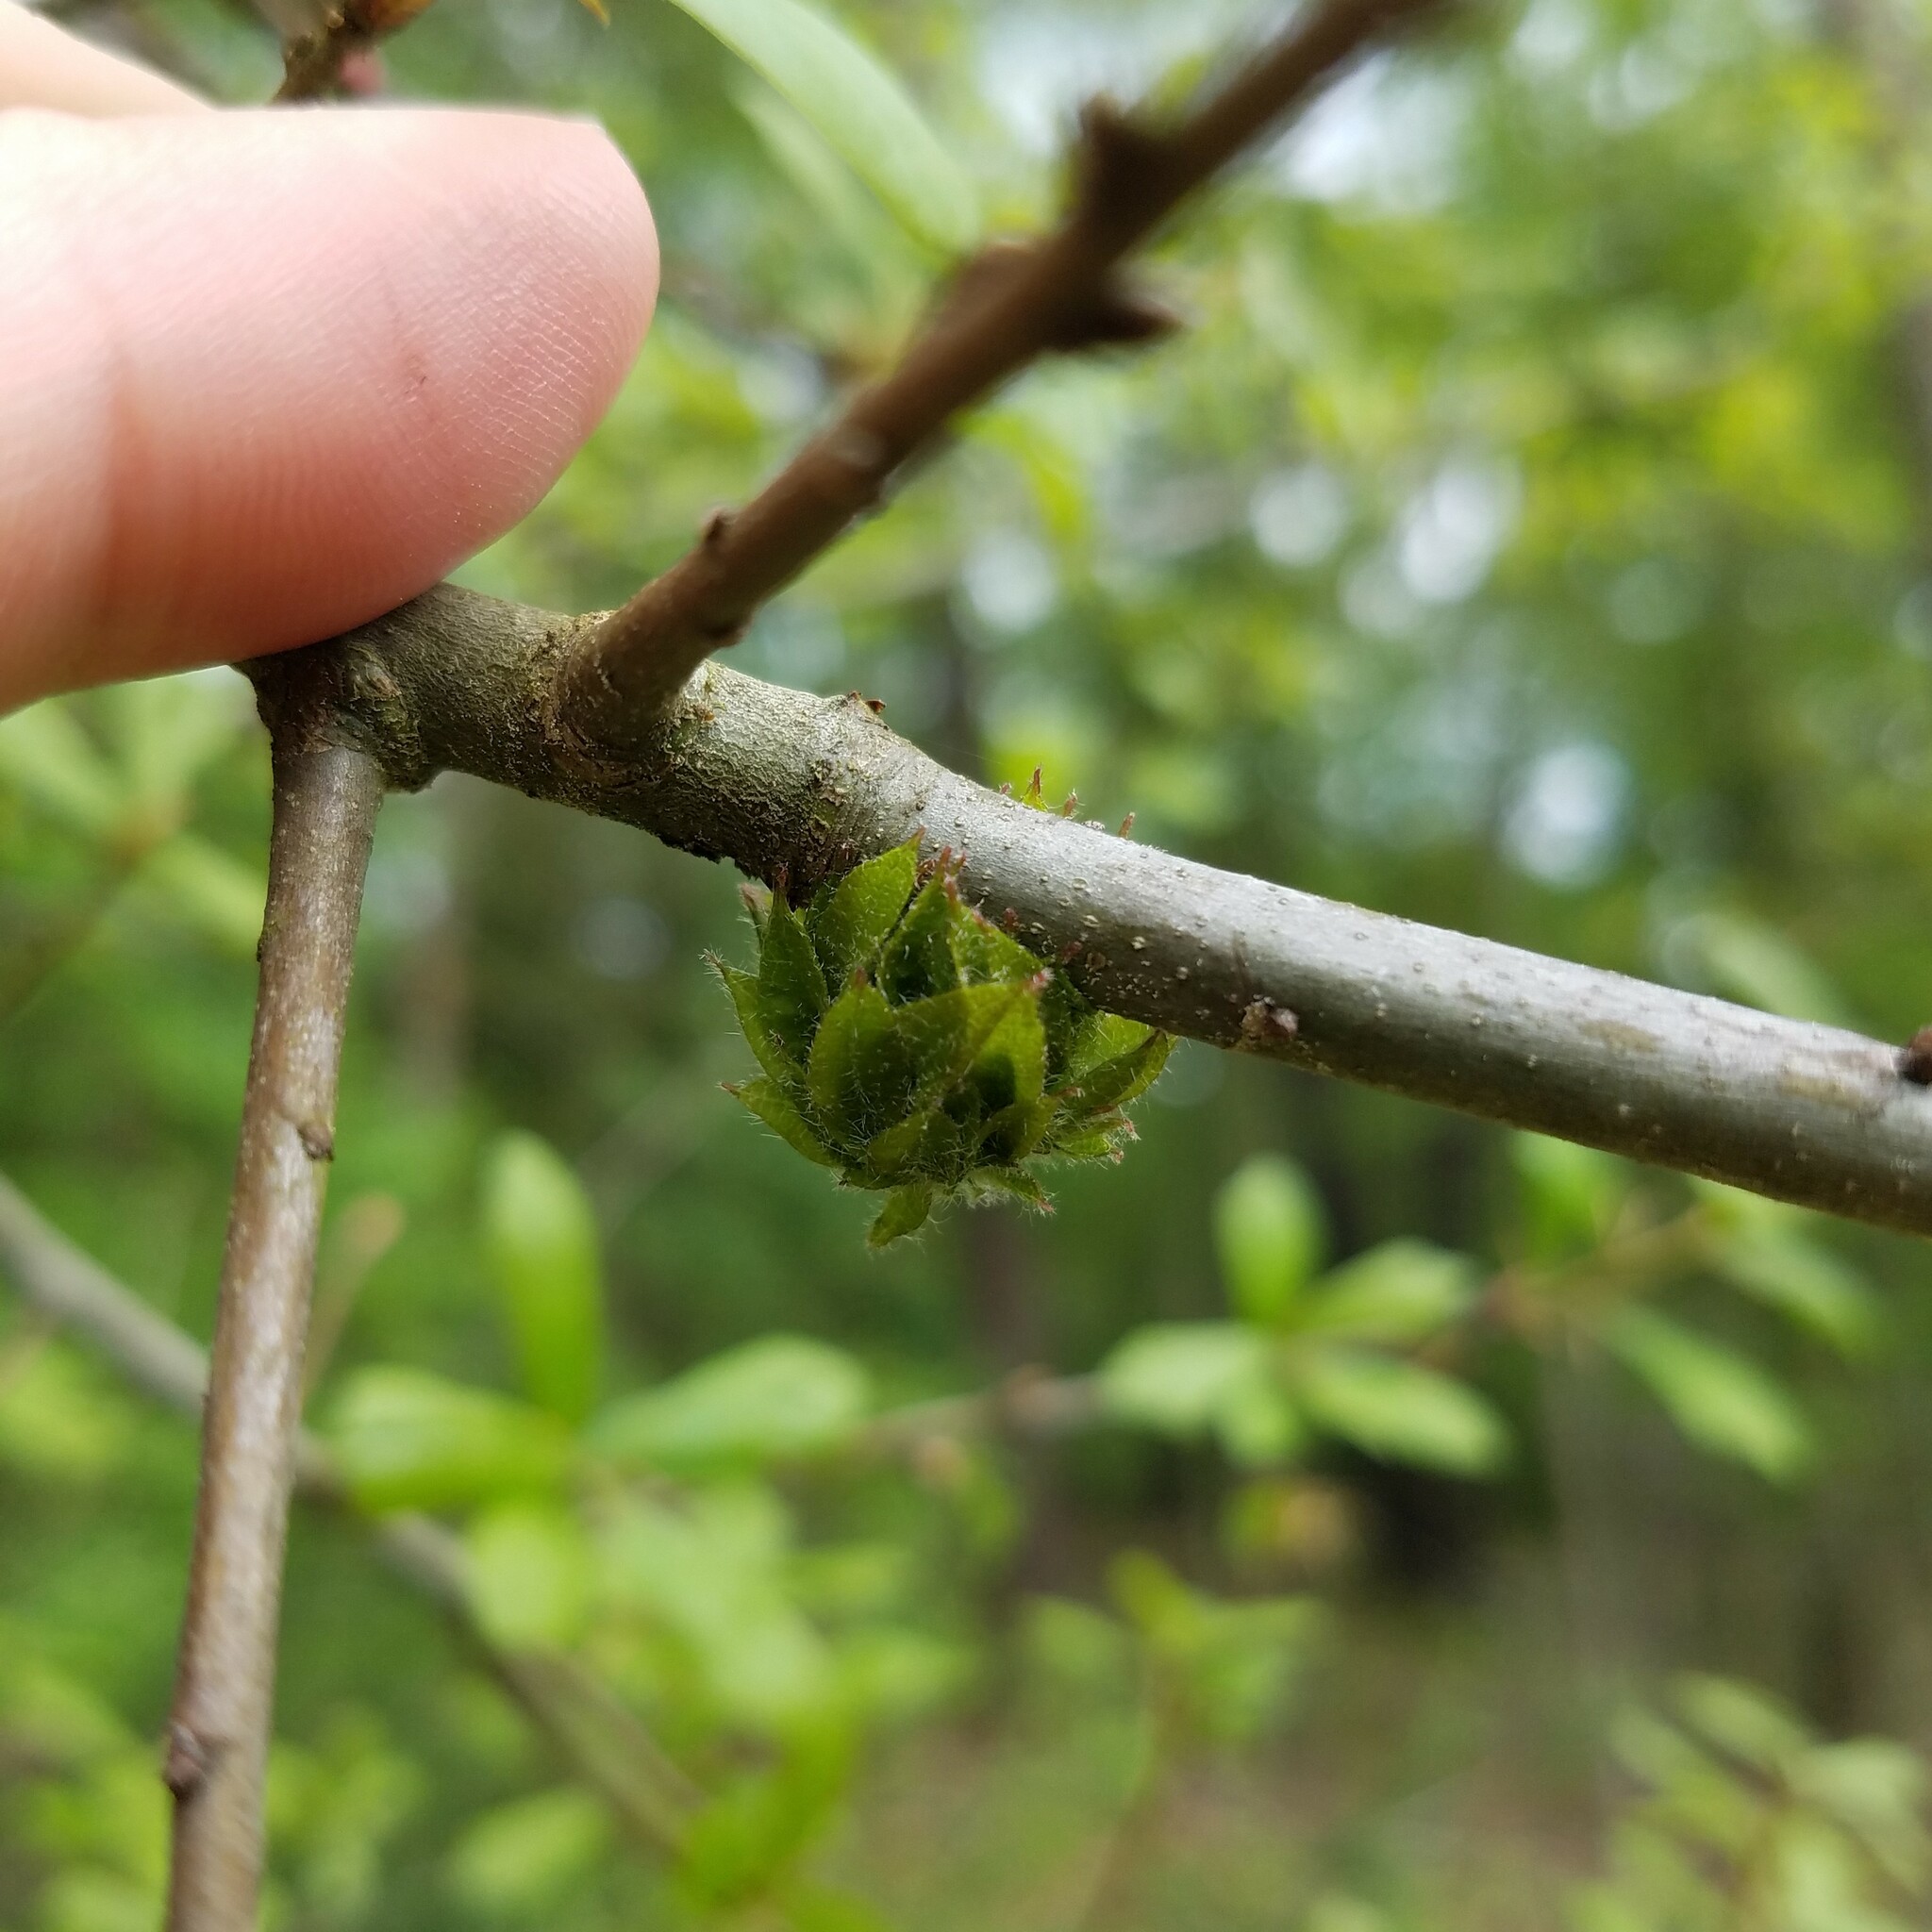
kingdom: Animalia
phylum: Arthropoda
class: Insecta
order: Hymenoptera
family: Cynipidae
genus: Dryocosmus
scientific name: Dryocosmus
